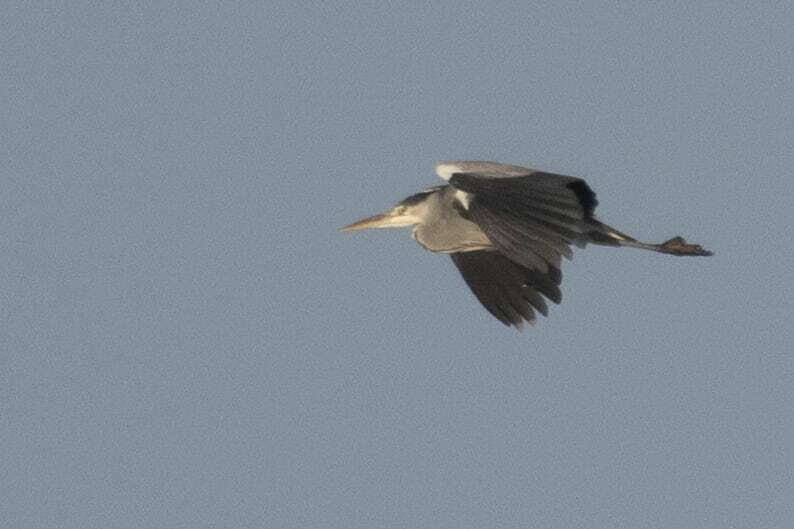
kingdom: Animalia
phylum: Chordata
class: Aves
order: Pelecaniformes
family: Ardeidae
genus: Ardea
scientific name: Ardea cinerea
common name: Grey heron
